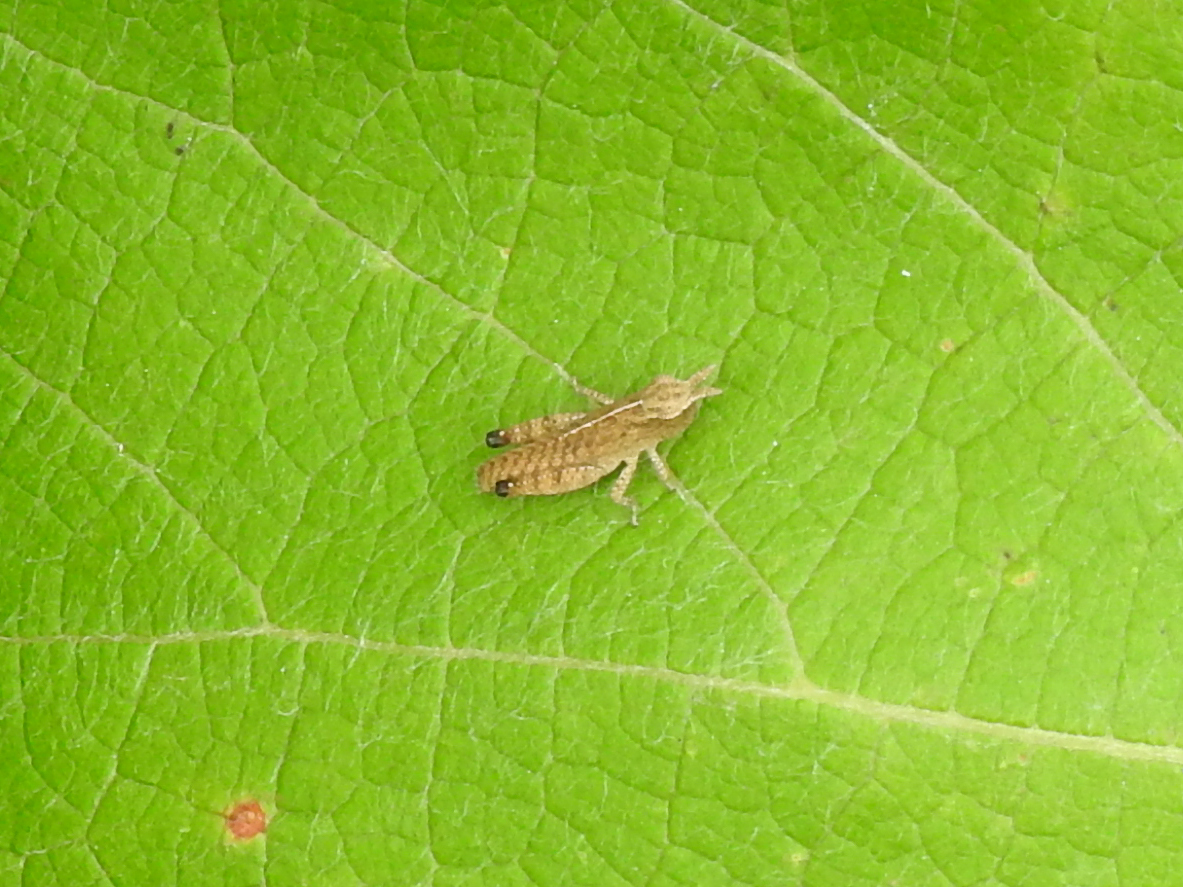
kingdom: Animalia
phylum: Arthropoda
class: Insecta
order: Orthoptera
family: Acrididae
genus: Chortophaga
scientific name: Chortophaga viridifasciata
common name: Green-striped grasshopper
